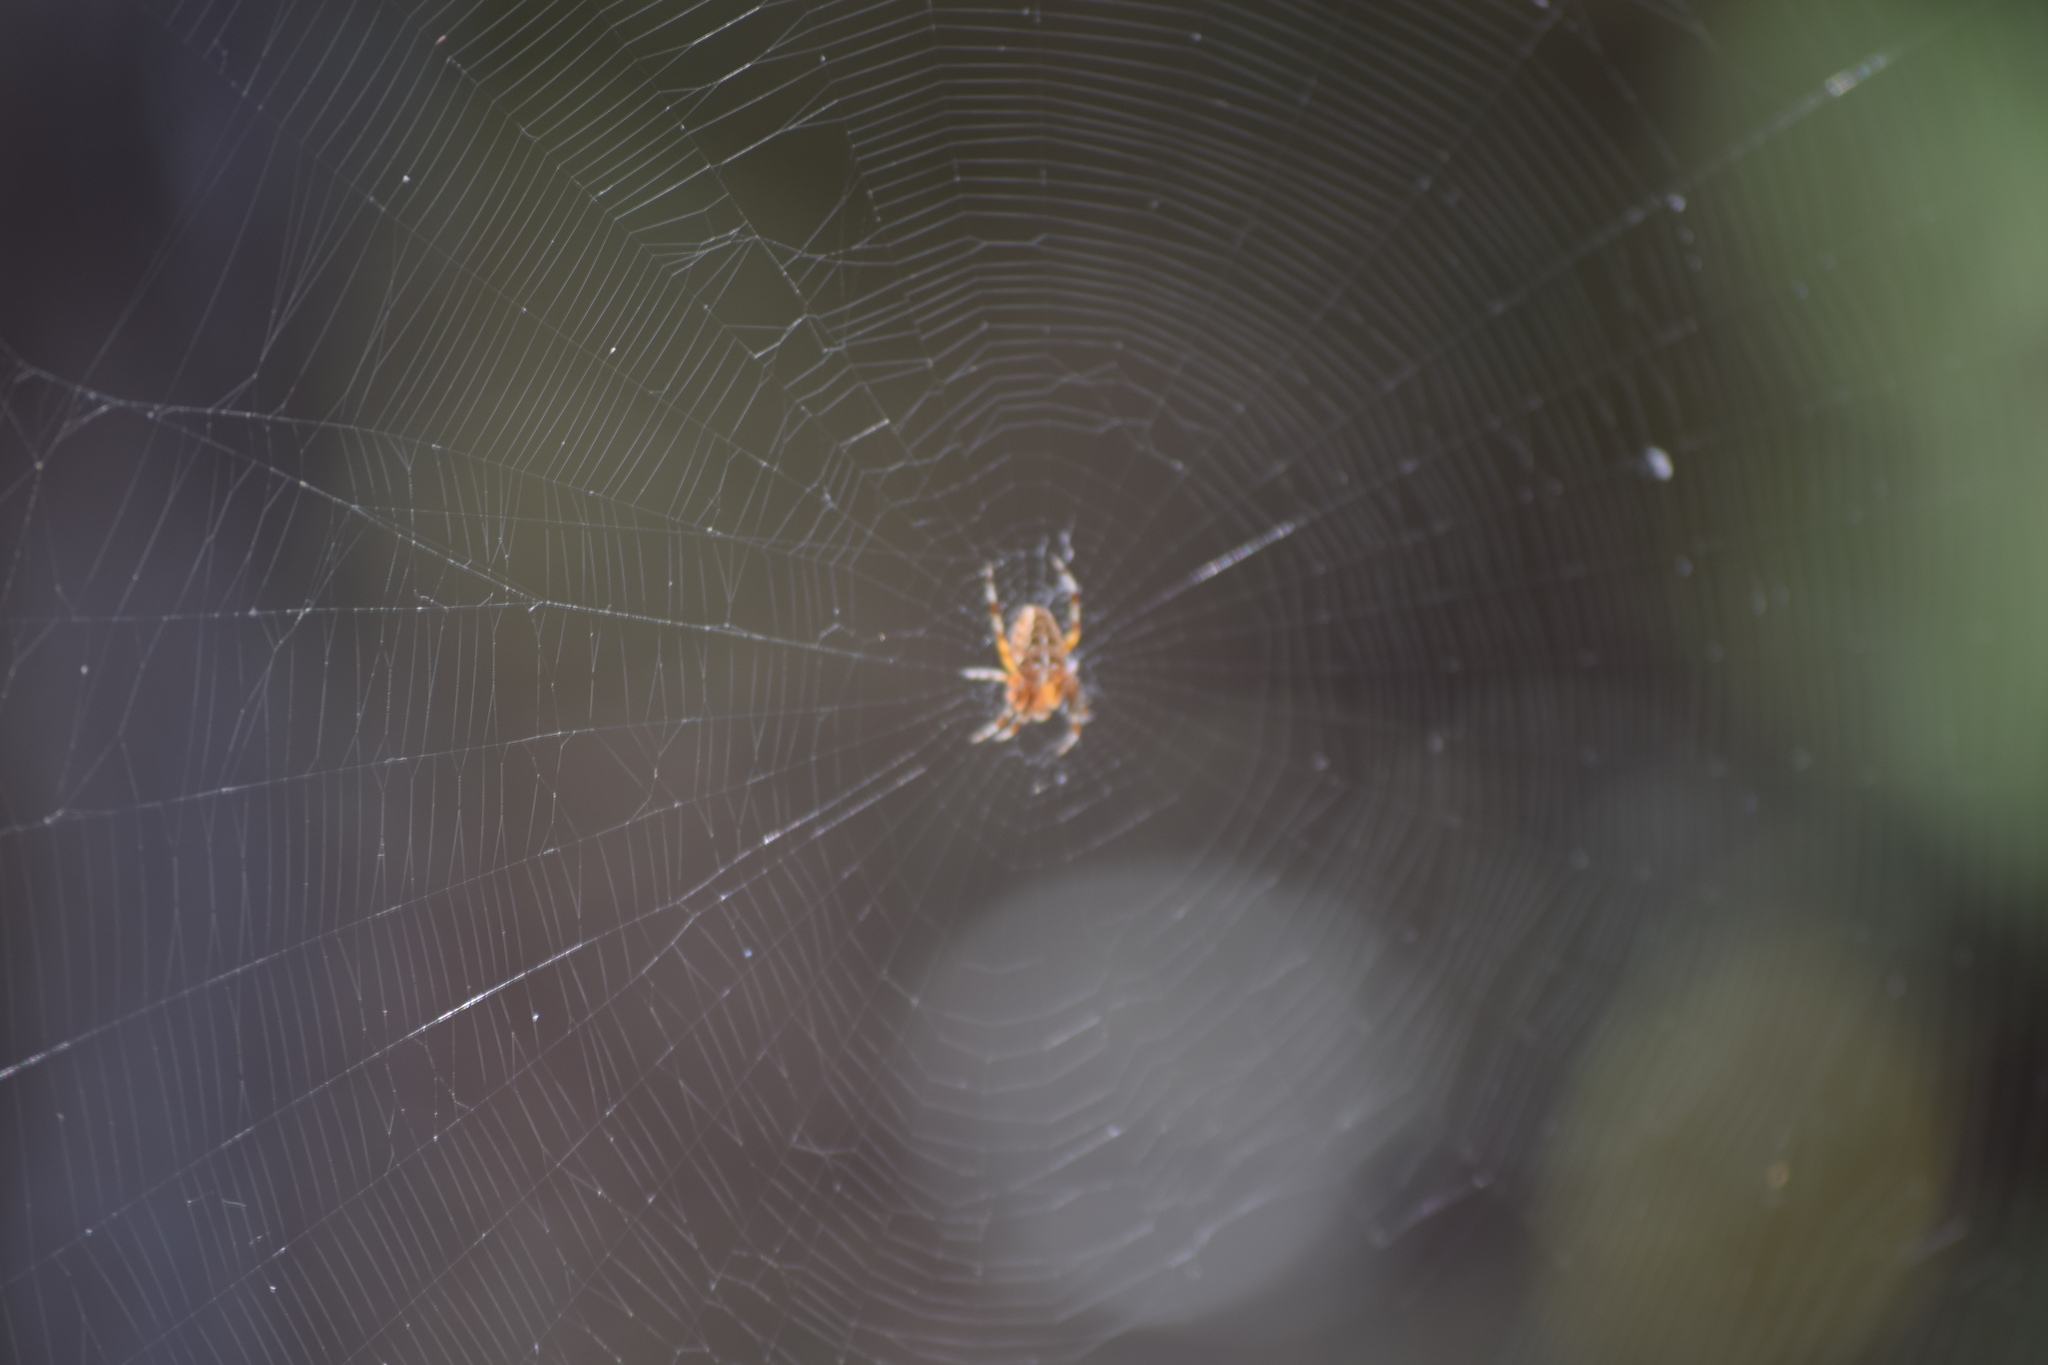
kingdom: Animalia
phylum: Arthropoda
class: Arachnida
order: Araneae
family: Araneidae
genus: Araneus
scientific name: Araneus diadematus
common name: Cross orbweaver
